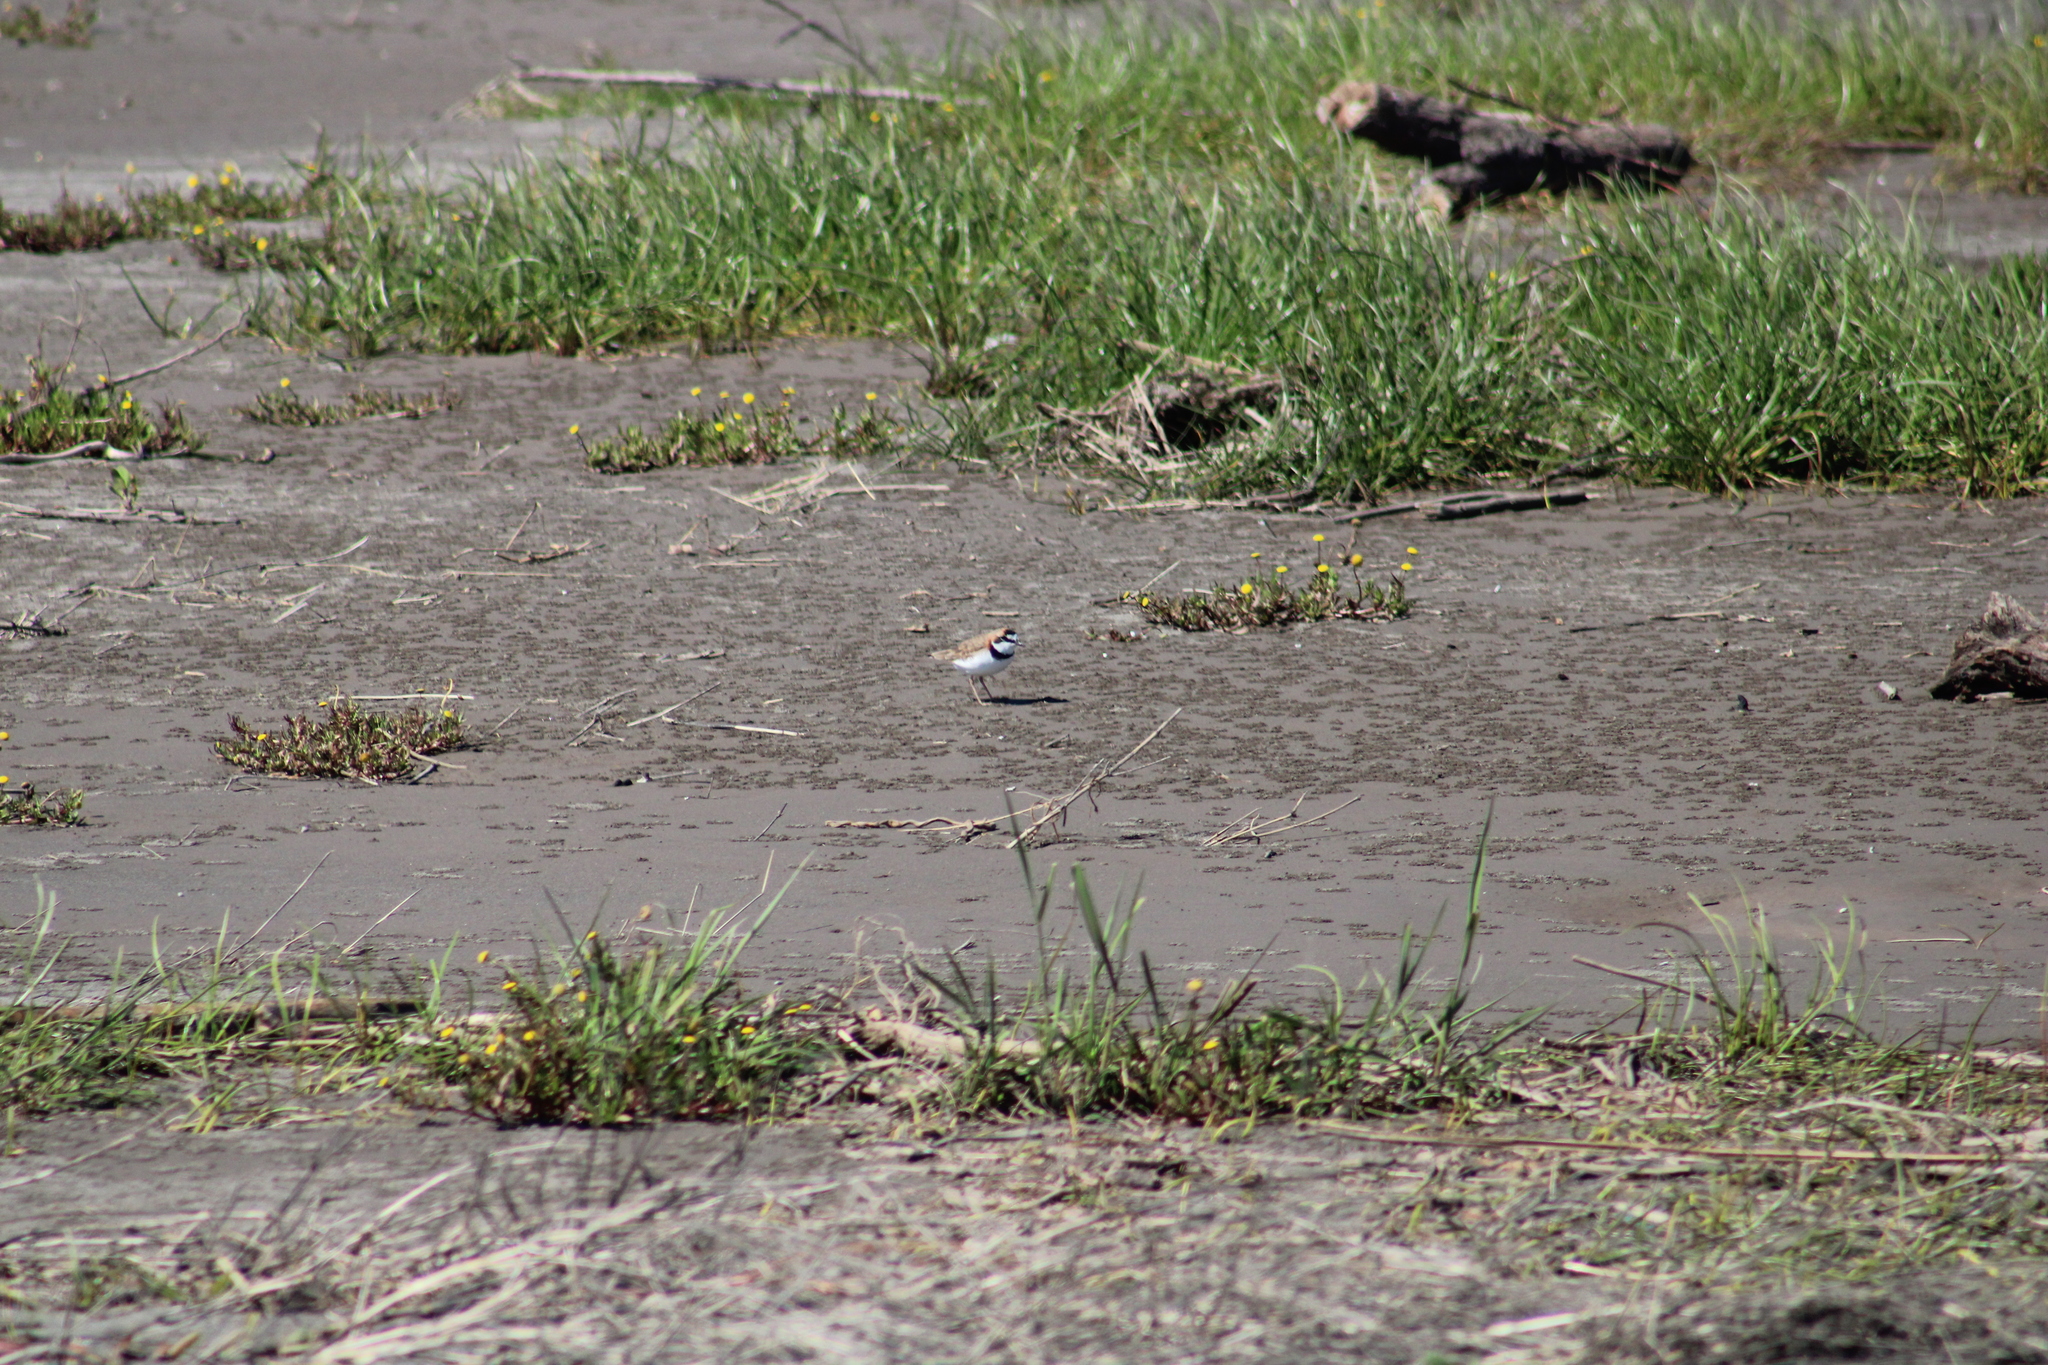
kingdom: Animalia
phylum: Chordata
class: Aves
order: Charadriiformes
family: Charadriidae
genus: Anarhynchus
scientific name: Anarhynchus
